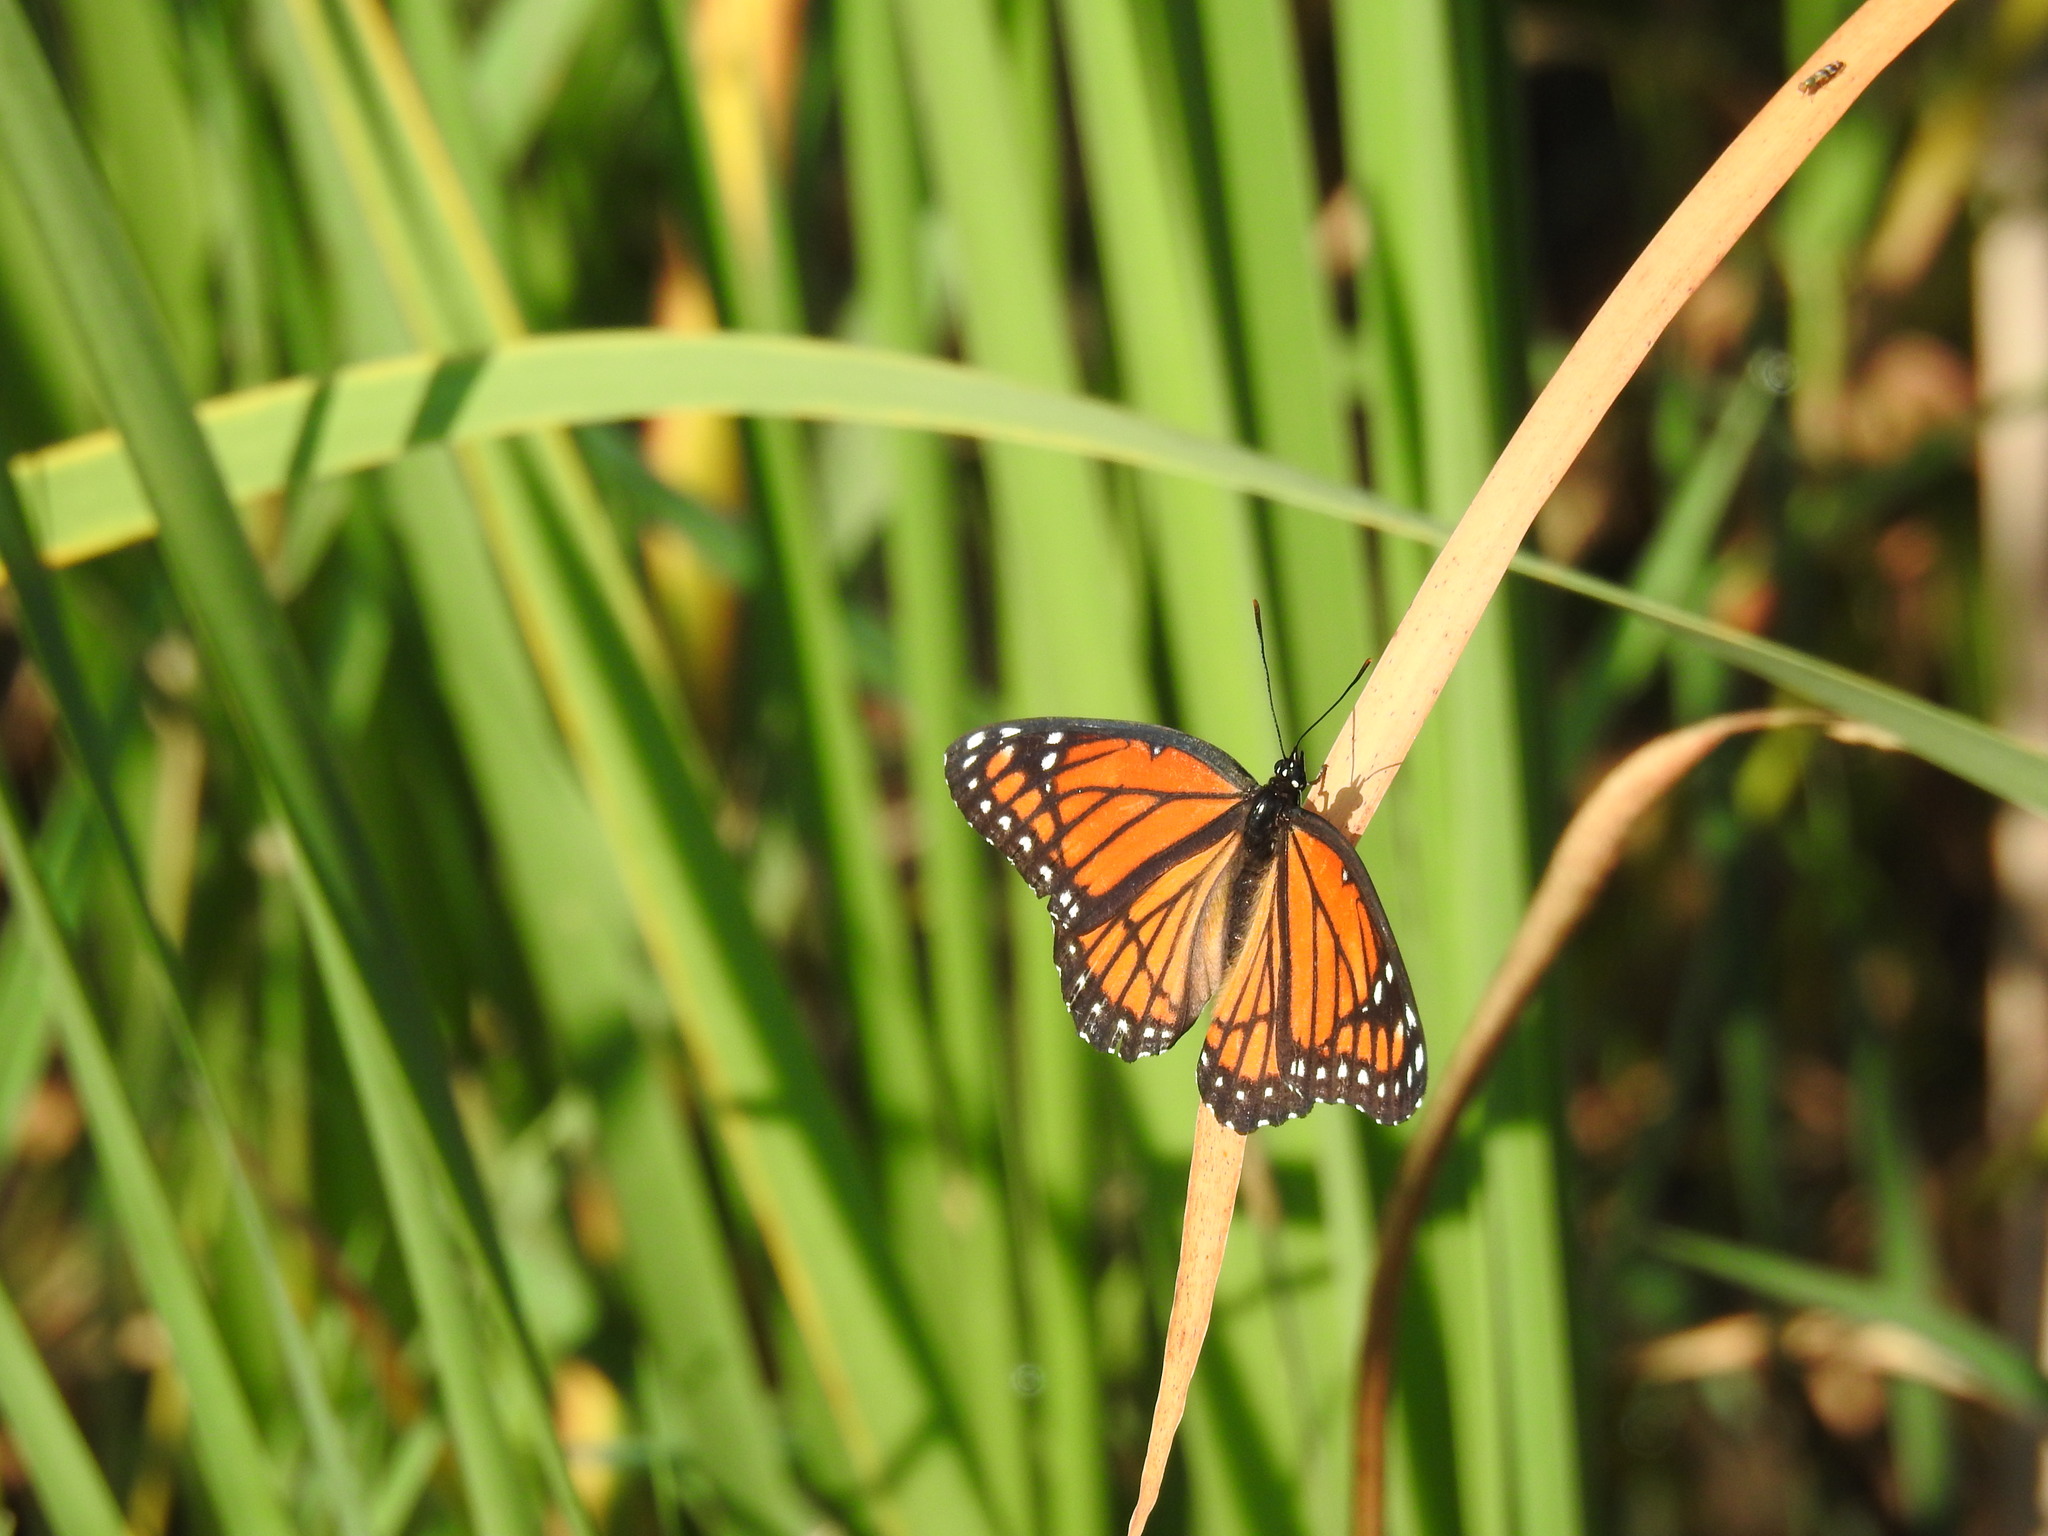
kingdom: Animalia
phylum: Arthropoda
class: Insecta
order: Lepidoptera
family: Nymphalidae
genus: Limenitis
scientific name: Limenitis archippus
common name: Viceroy
